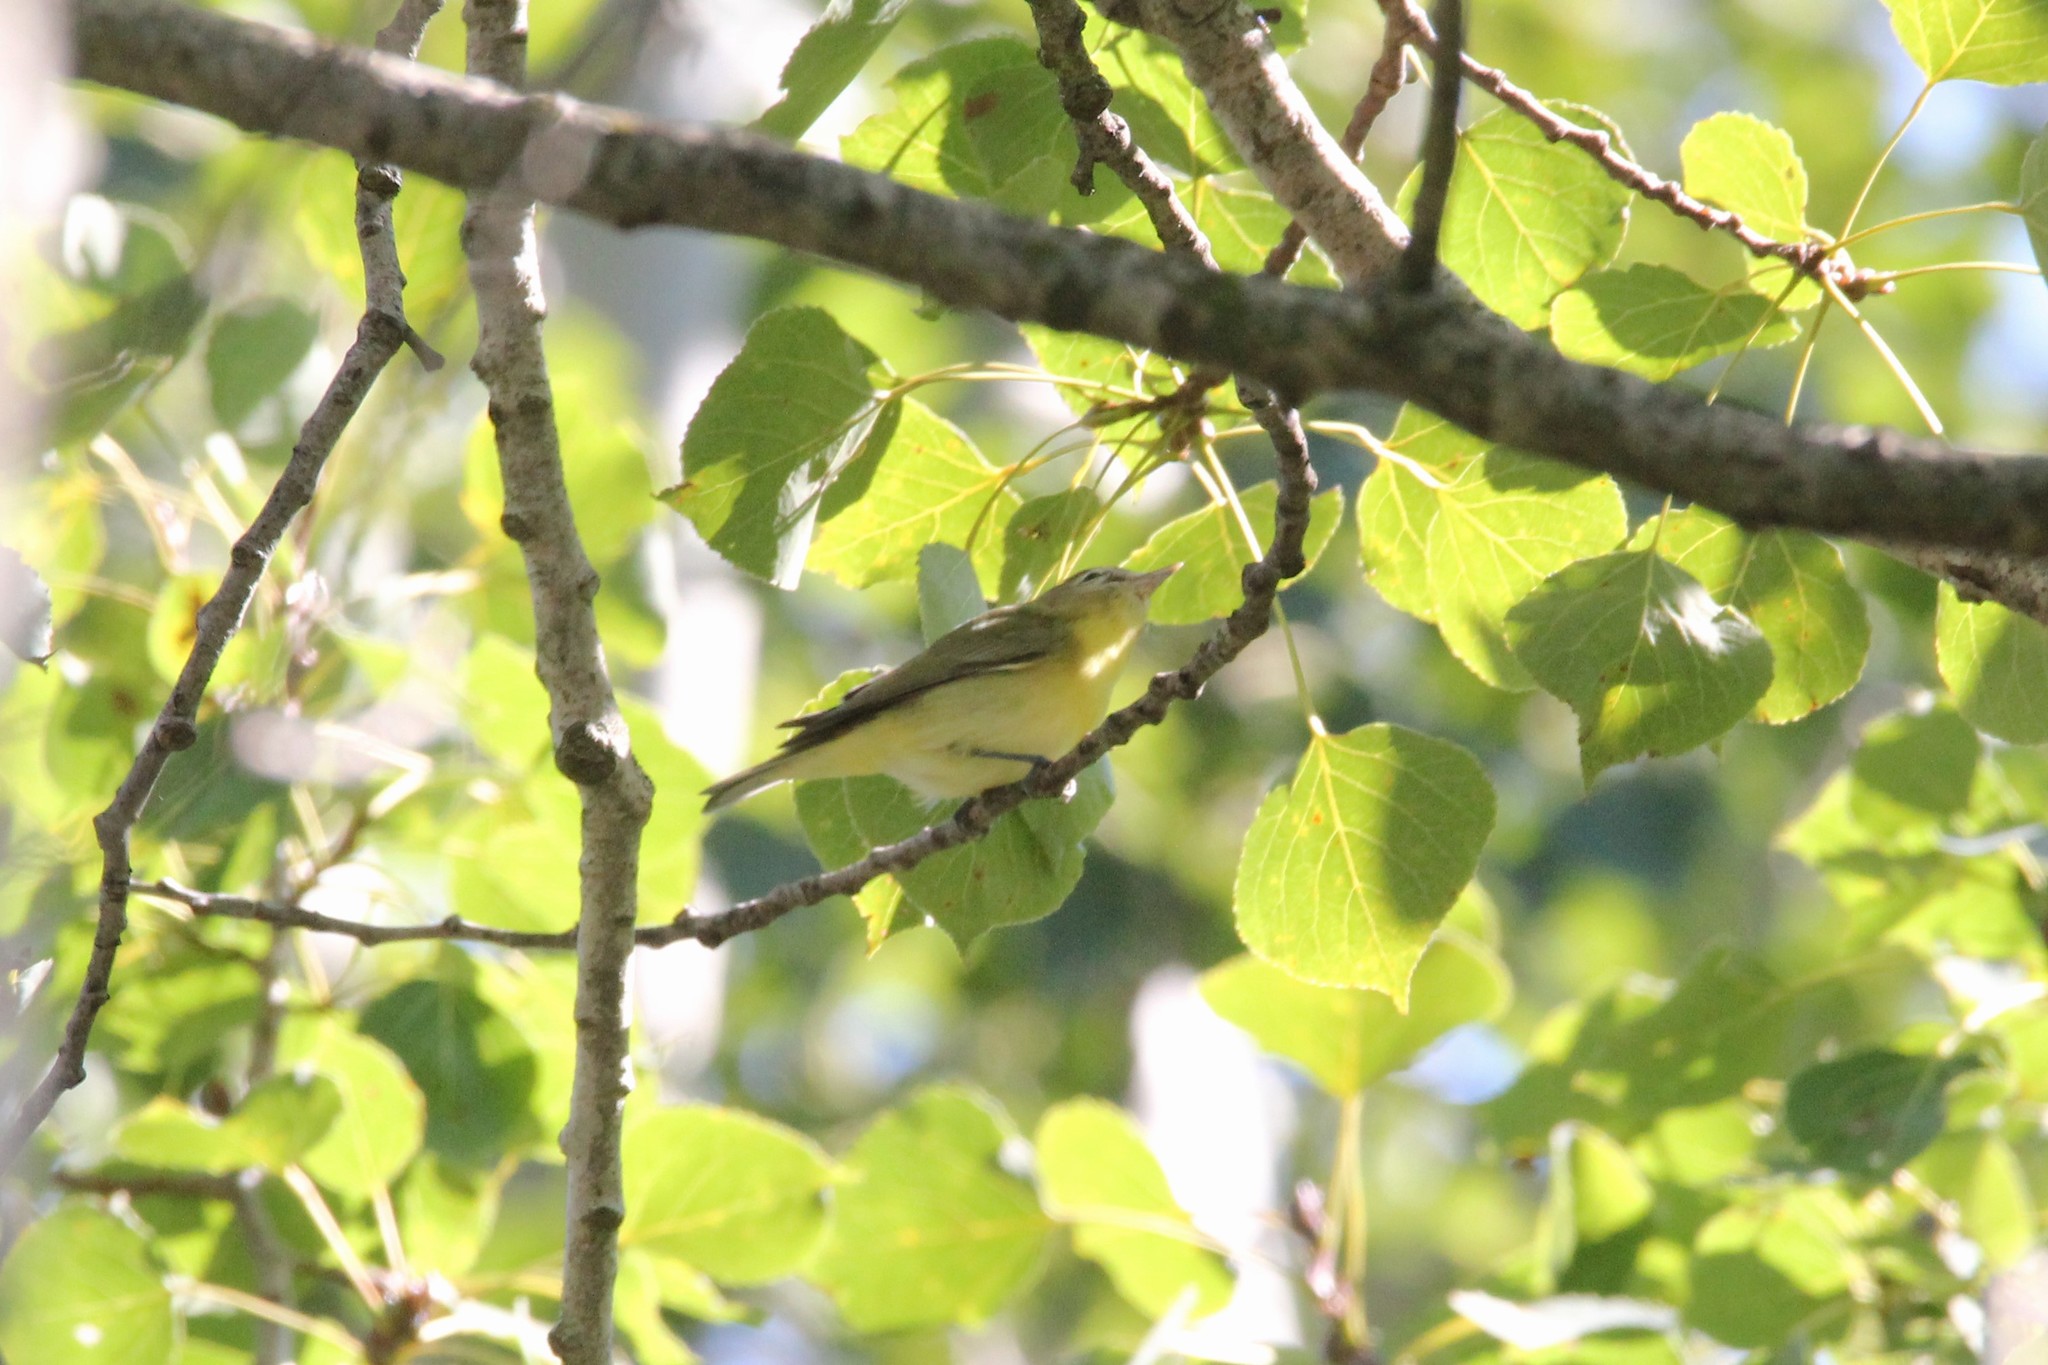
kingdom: Animalia
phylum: Chordata
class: Aves
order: Passeriformes
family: Vireonidae
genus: Vireo
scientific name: Vireo philadelphicus
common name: Philadelphia vireo
